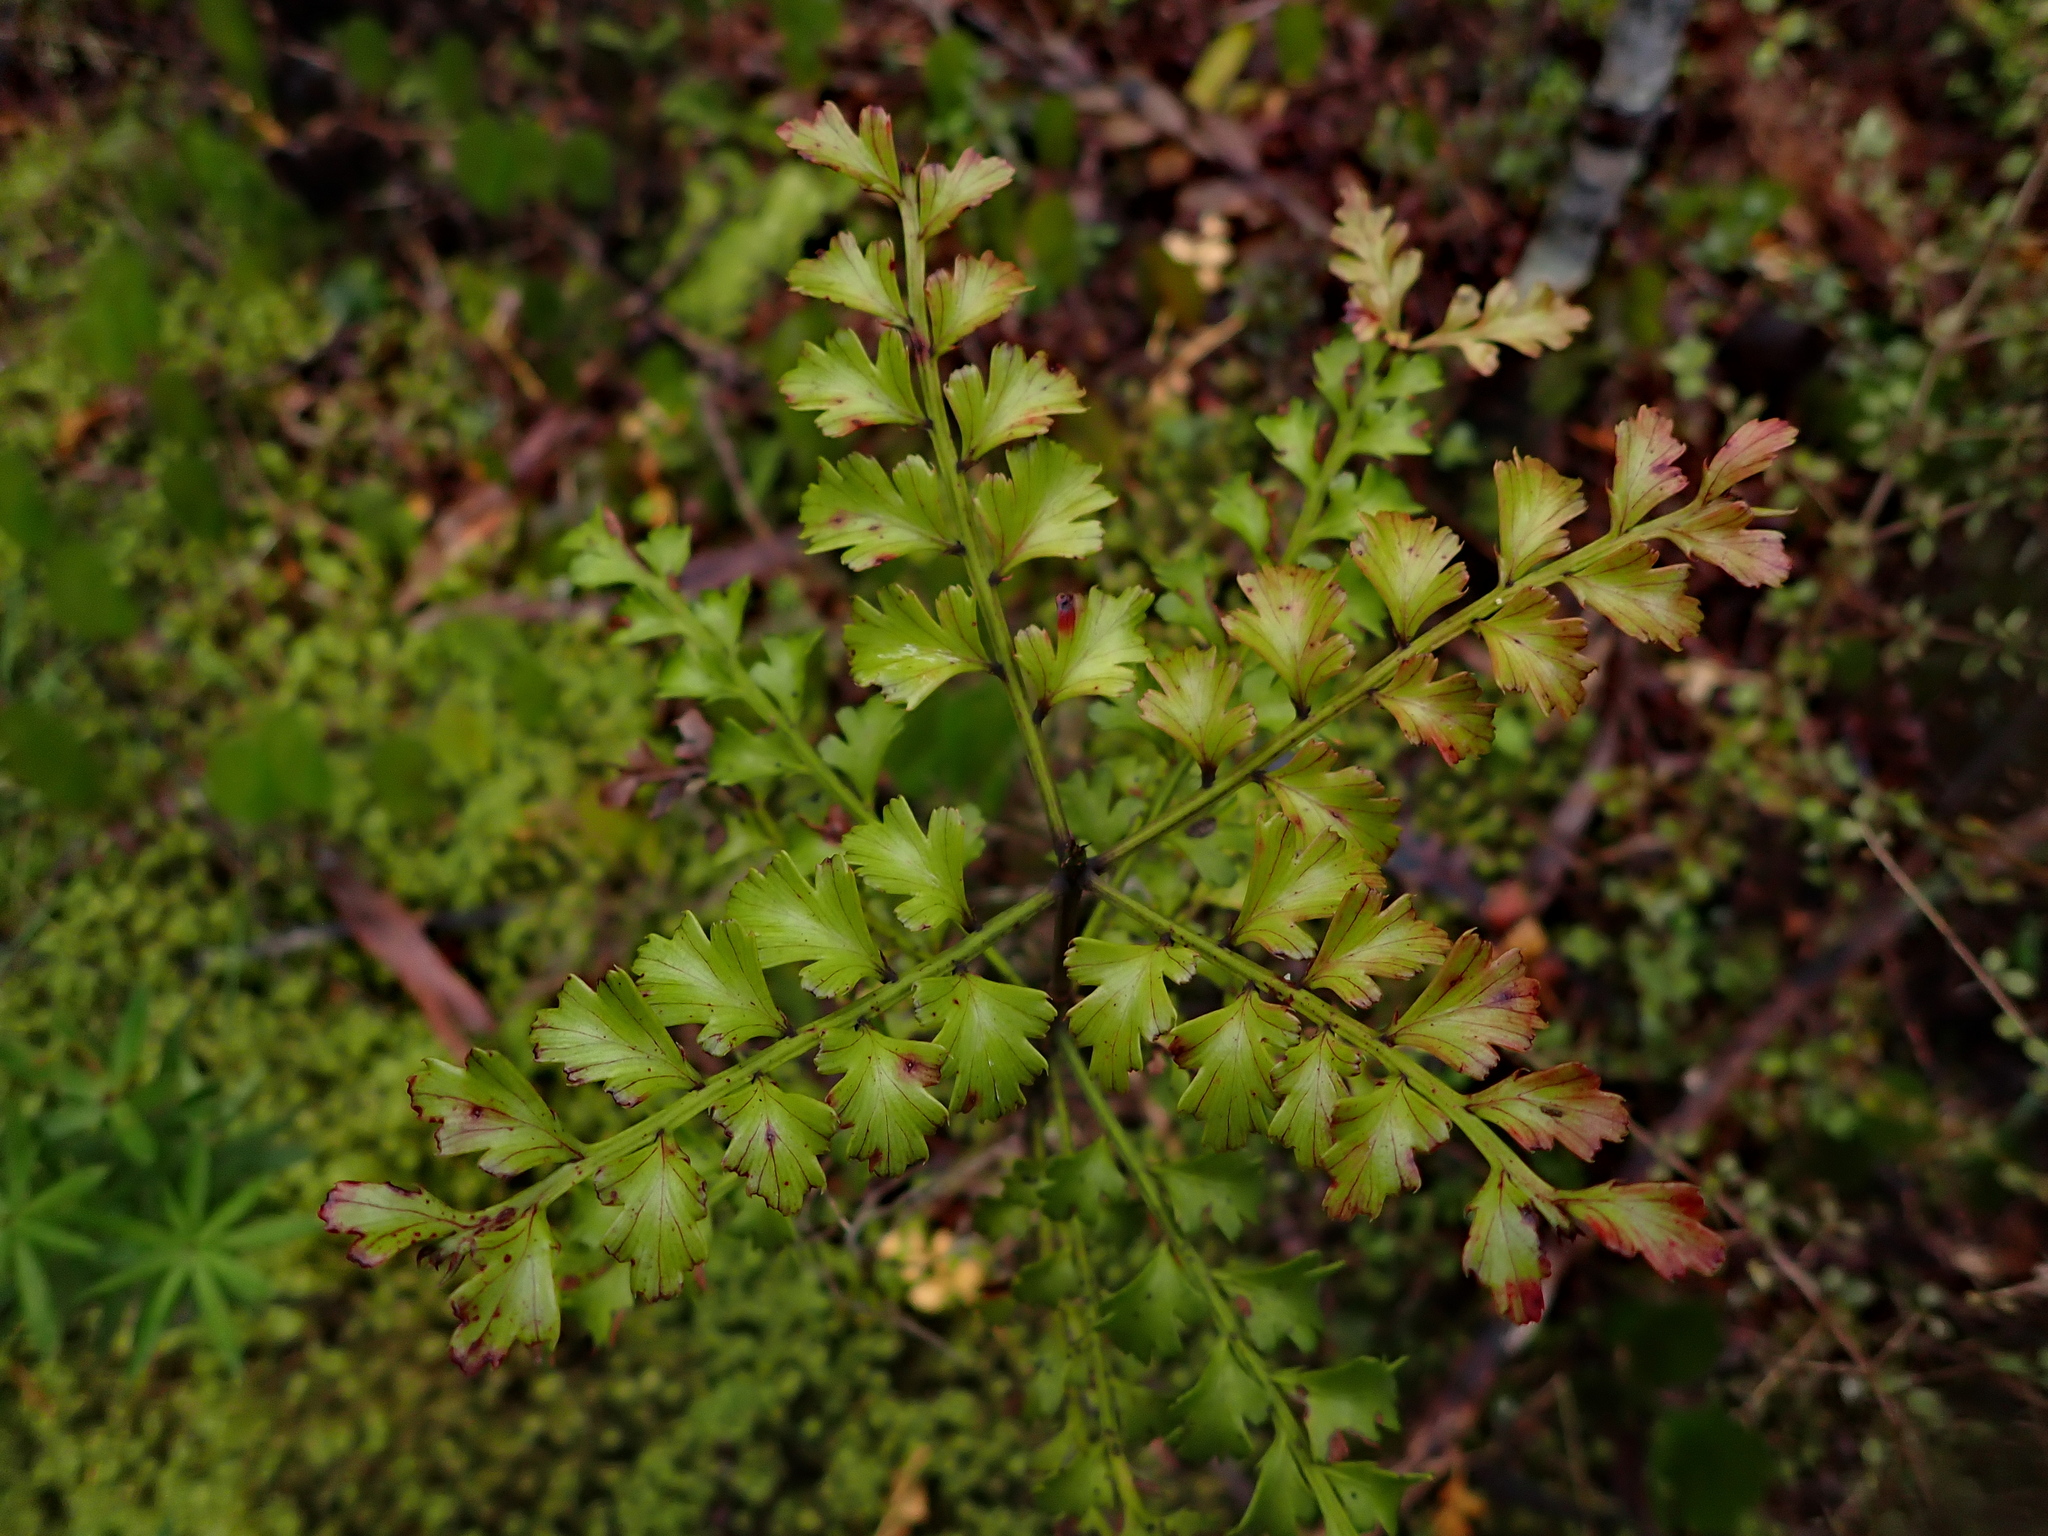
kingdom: Plantae
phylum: Tracheophyta
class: Pinopsida
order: Pinales
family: Phyllocladaceae
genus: Phyllocladus
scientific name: Phyllocladus trichomanoides
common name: Celery pine
